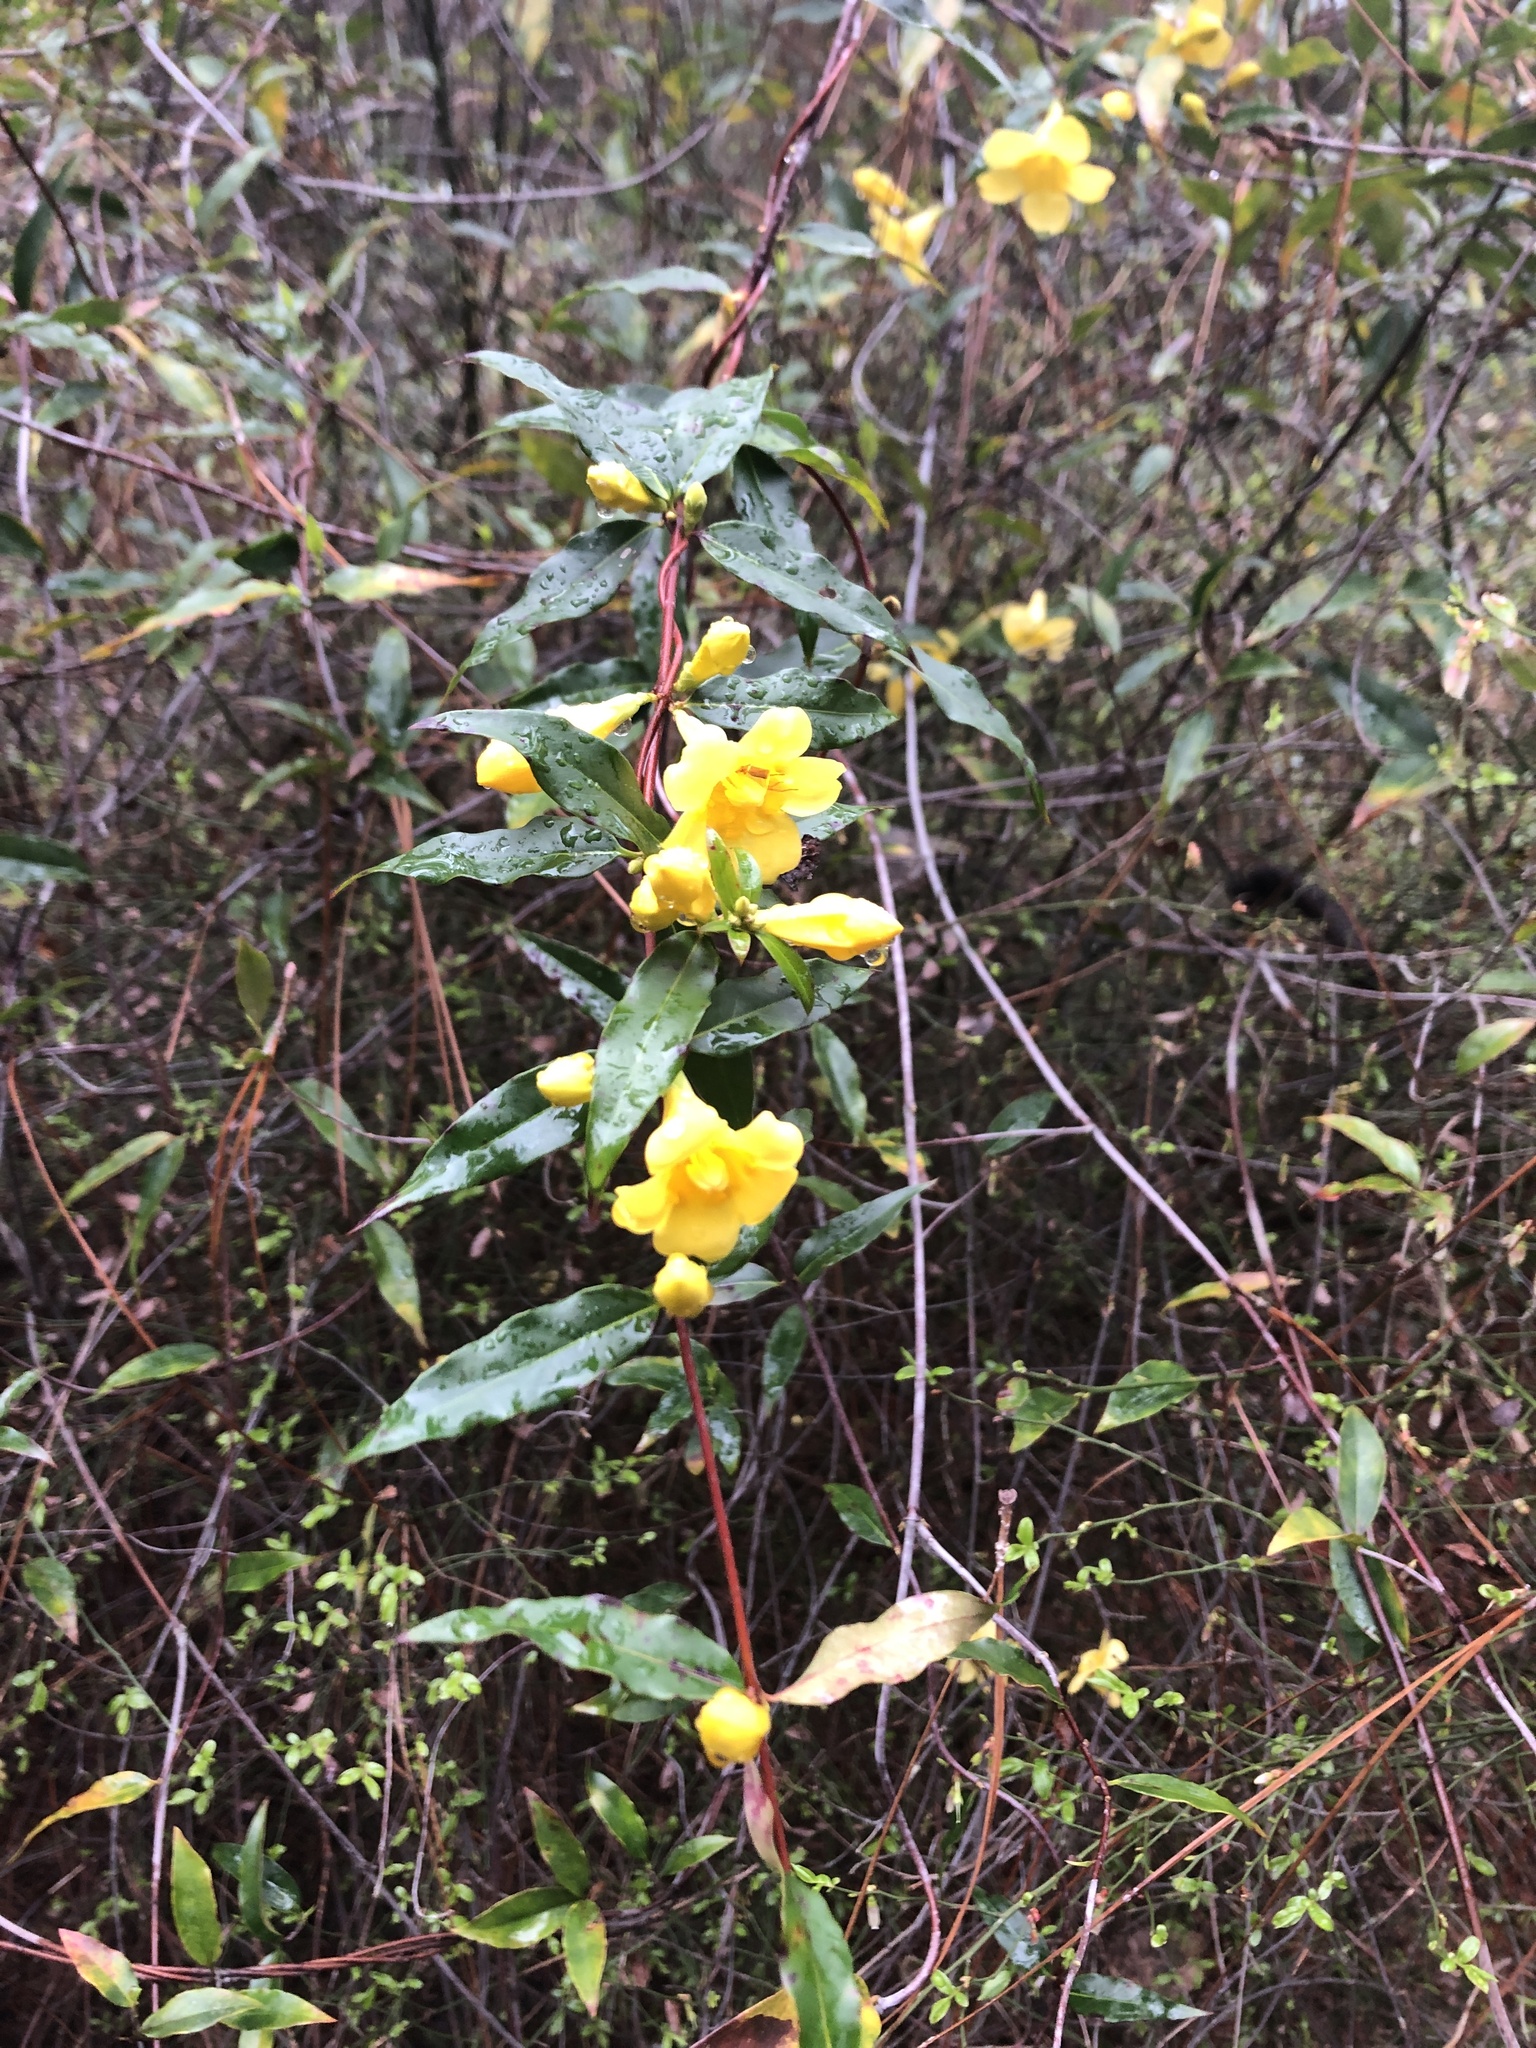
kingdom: Plantae
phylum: Tracheophyta
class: Magnoliopsida
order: Gentianales
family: Gelsemiaceae
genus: Gelsemium
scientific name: Gelsemium sempervirens
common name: Carolina-jasmine
